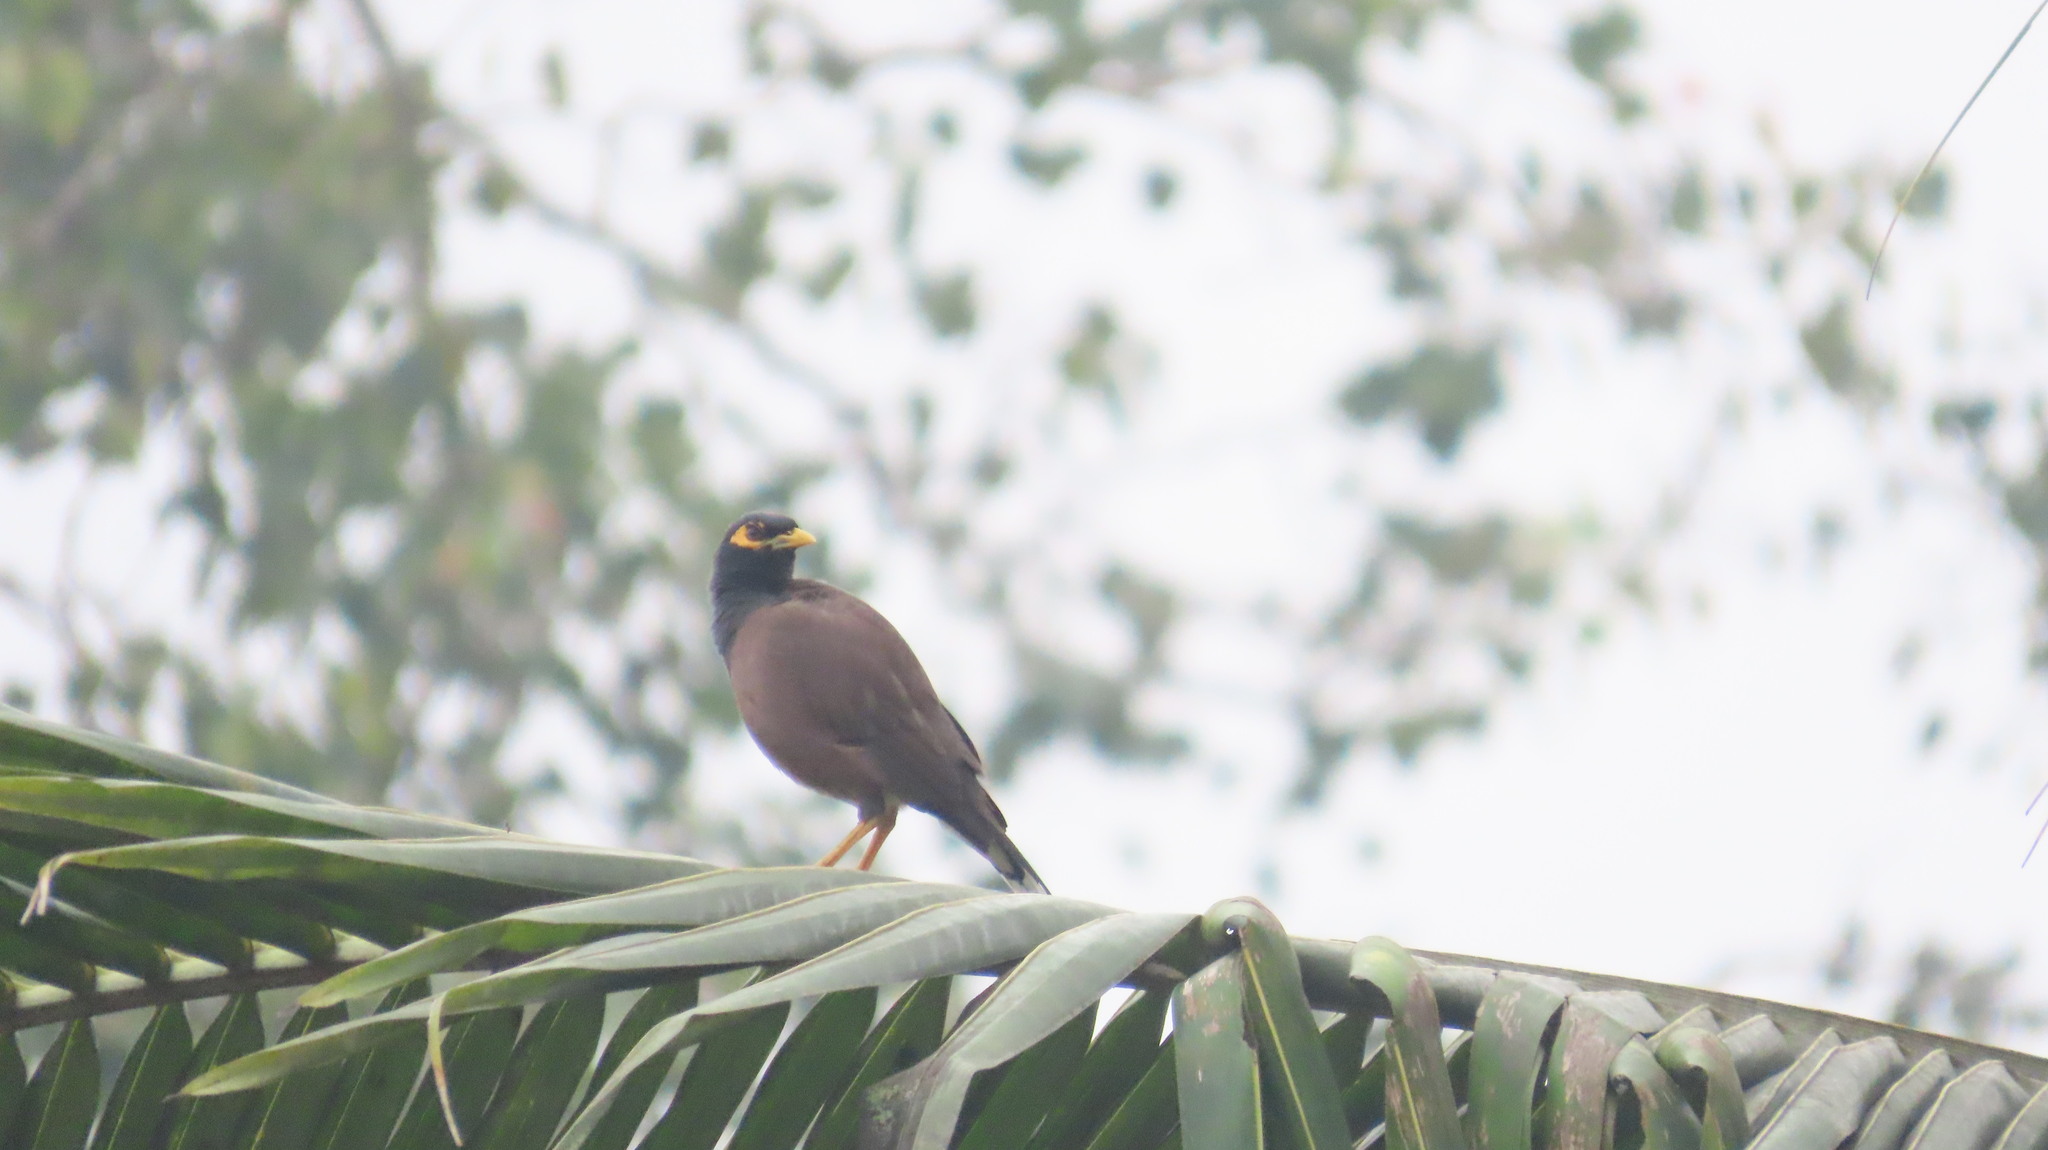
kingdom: Animalia
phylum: Chordata
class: Aves
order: Passeriformes
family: Sturnidae
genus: Acridotheres
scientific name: Acridotheres tristis
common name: Common myna
